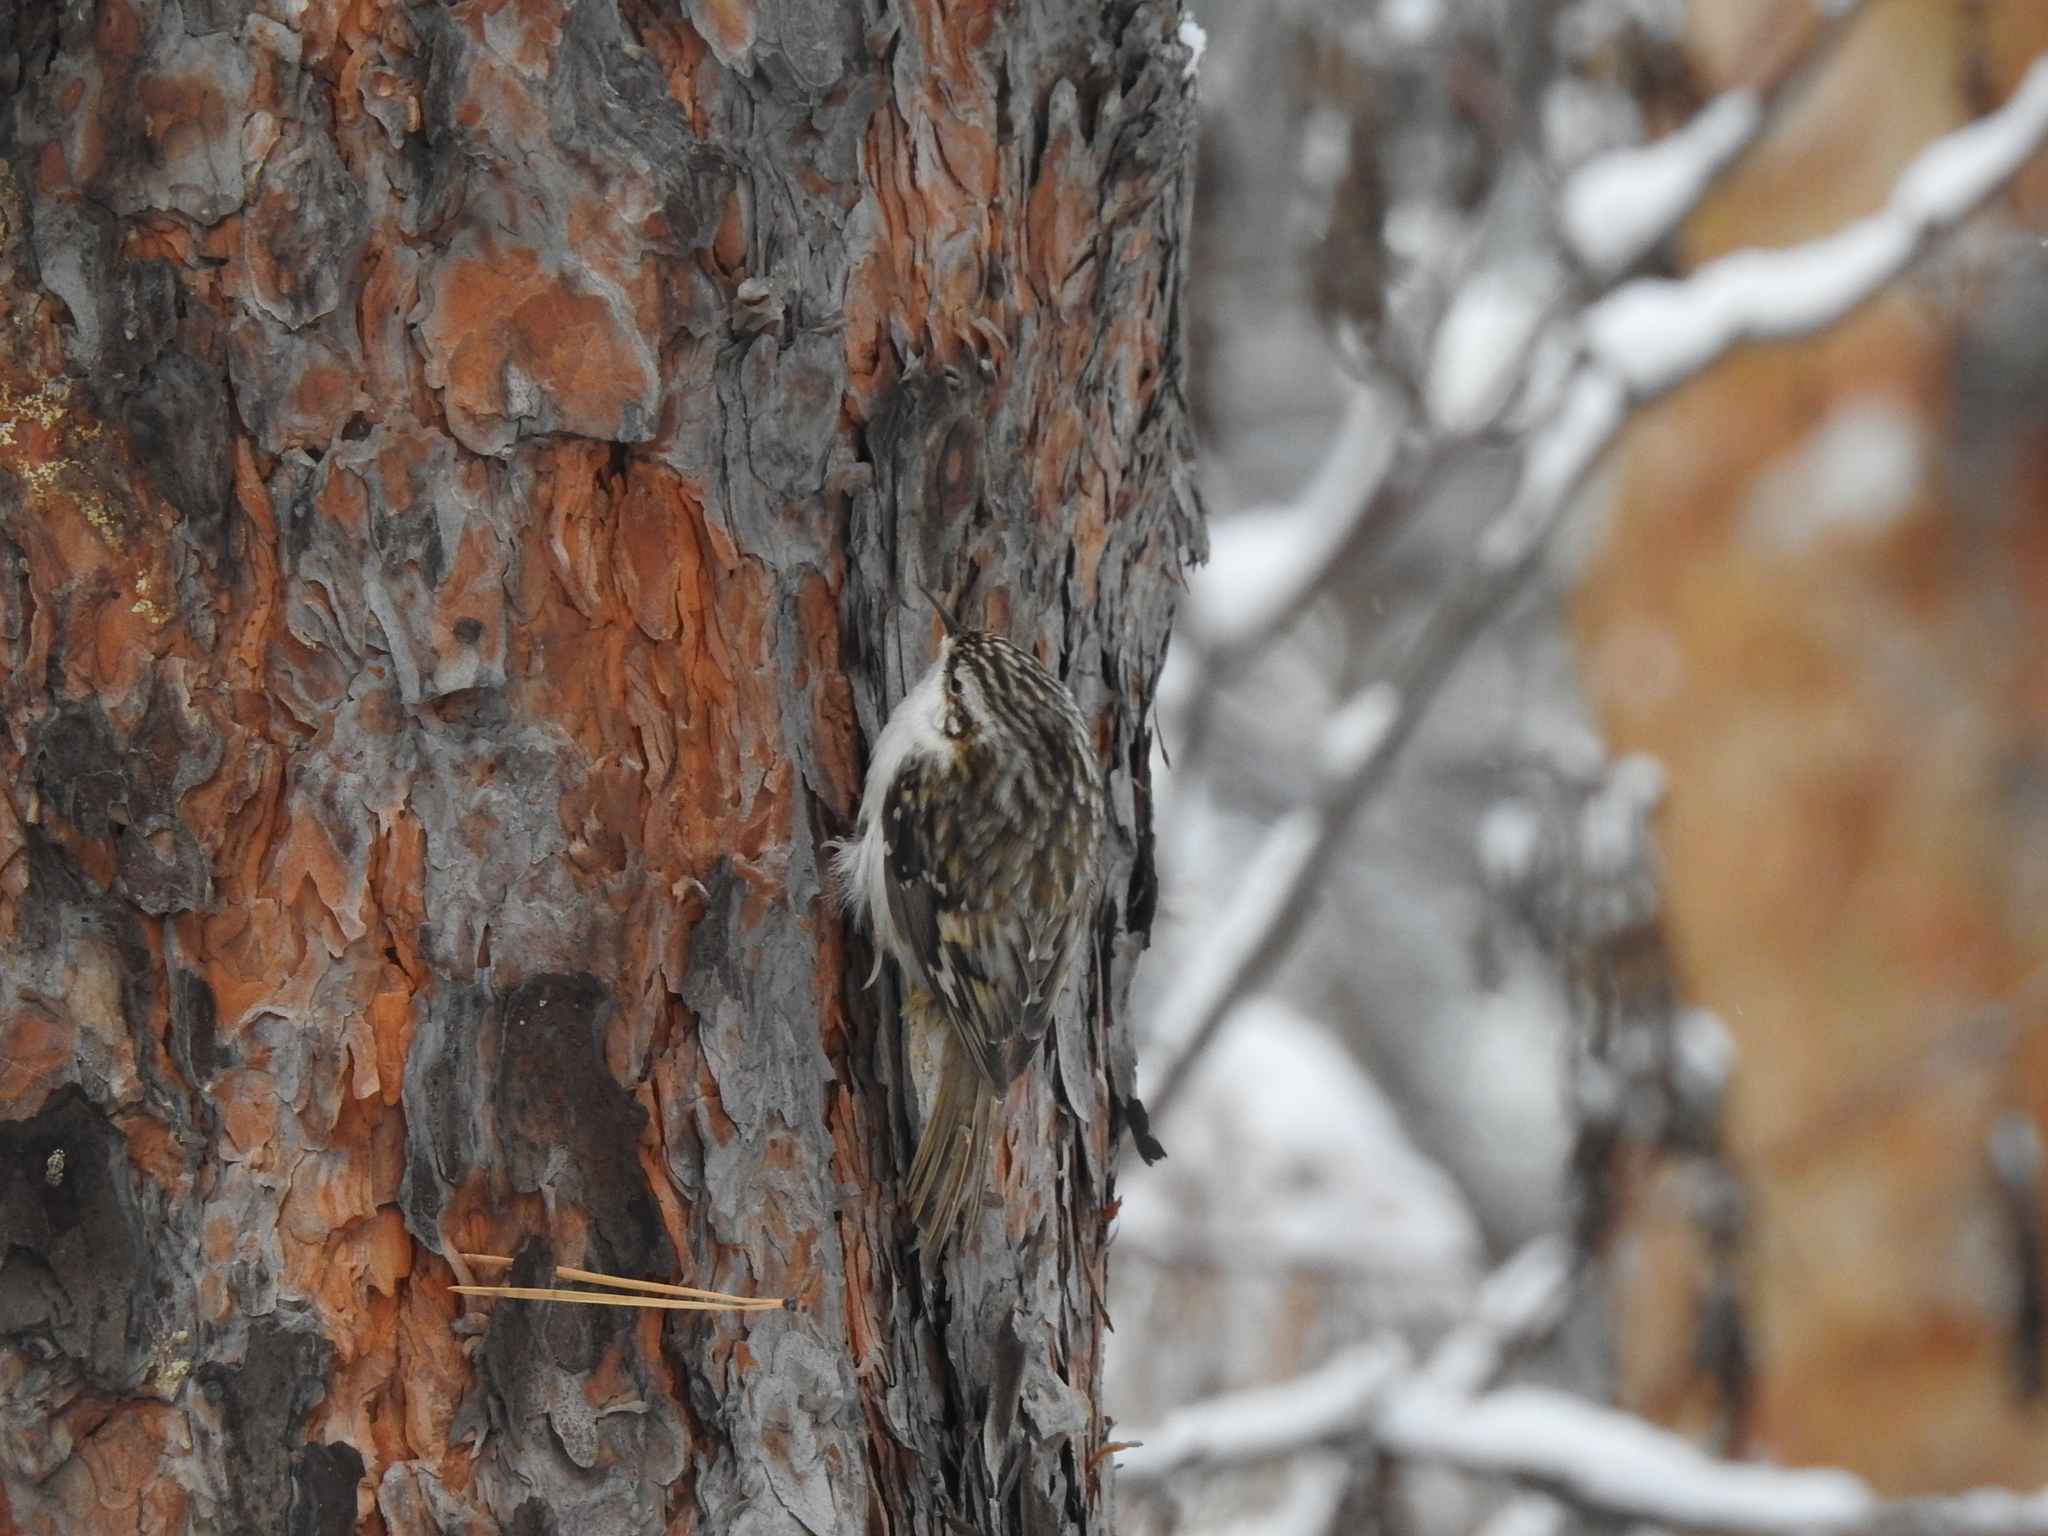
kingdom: Animalia
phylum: Chordata
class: Aves
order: Passeriformes
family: Certhiidae
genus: Certhia
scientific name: Certhia familiaris
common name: Eurasian treecreeper
